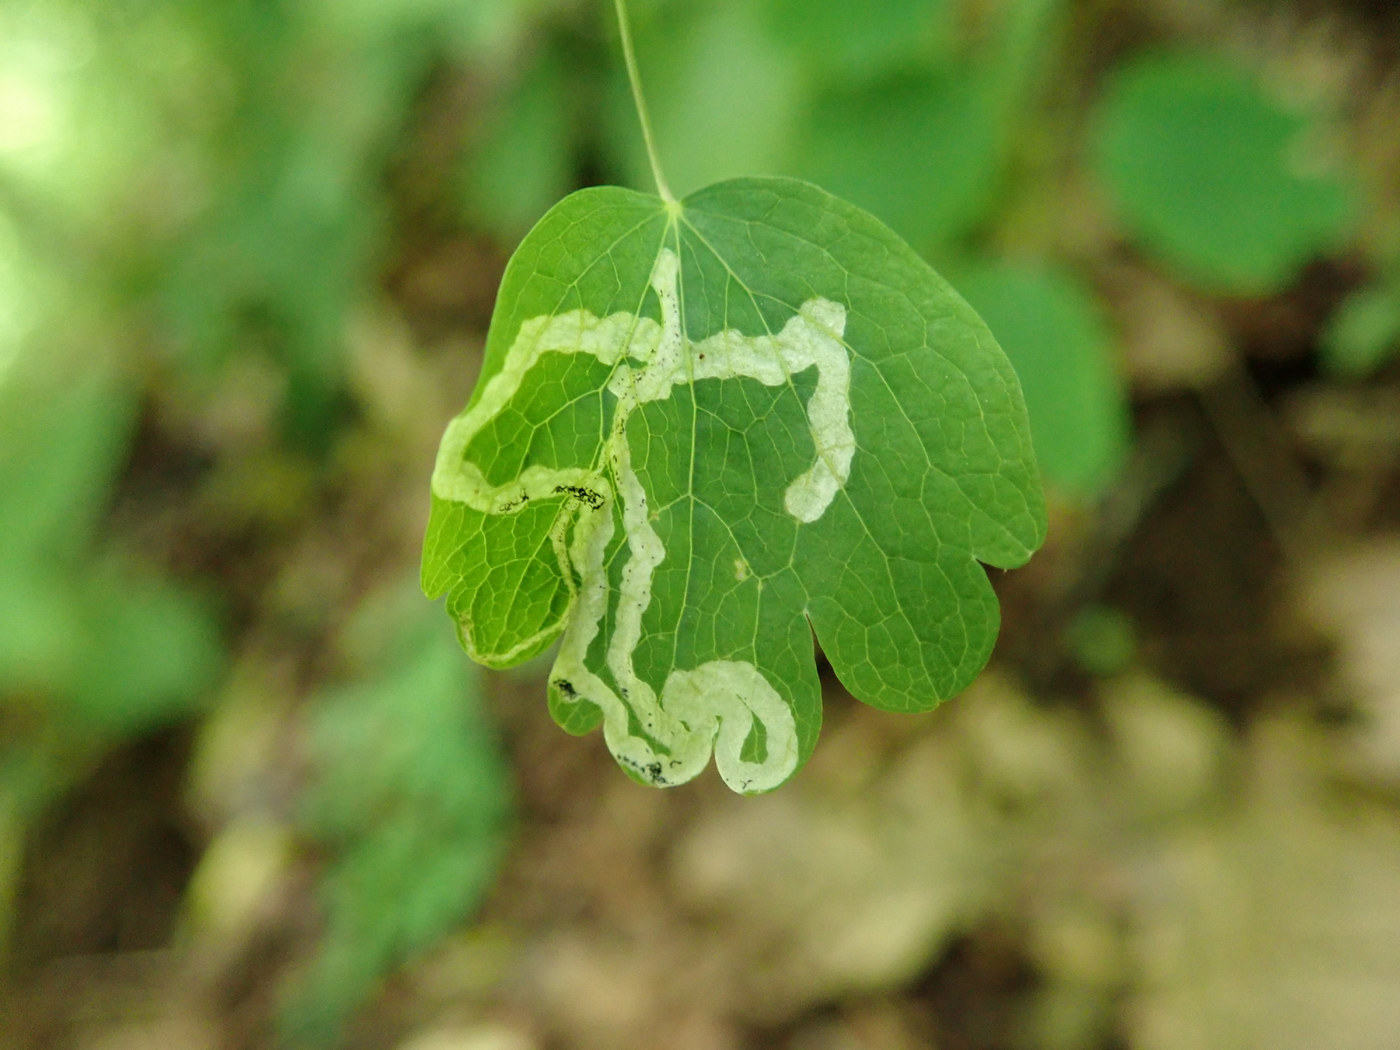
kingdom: Animalia
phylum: Arthropoda
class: Insecta
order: Diptera
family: Agromyzidae
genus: Phytomyza
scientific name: Phytomyza
